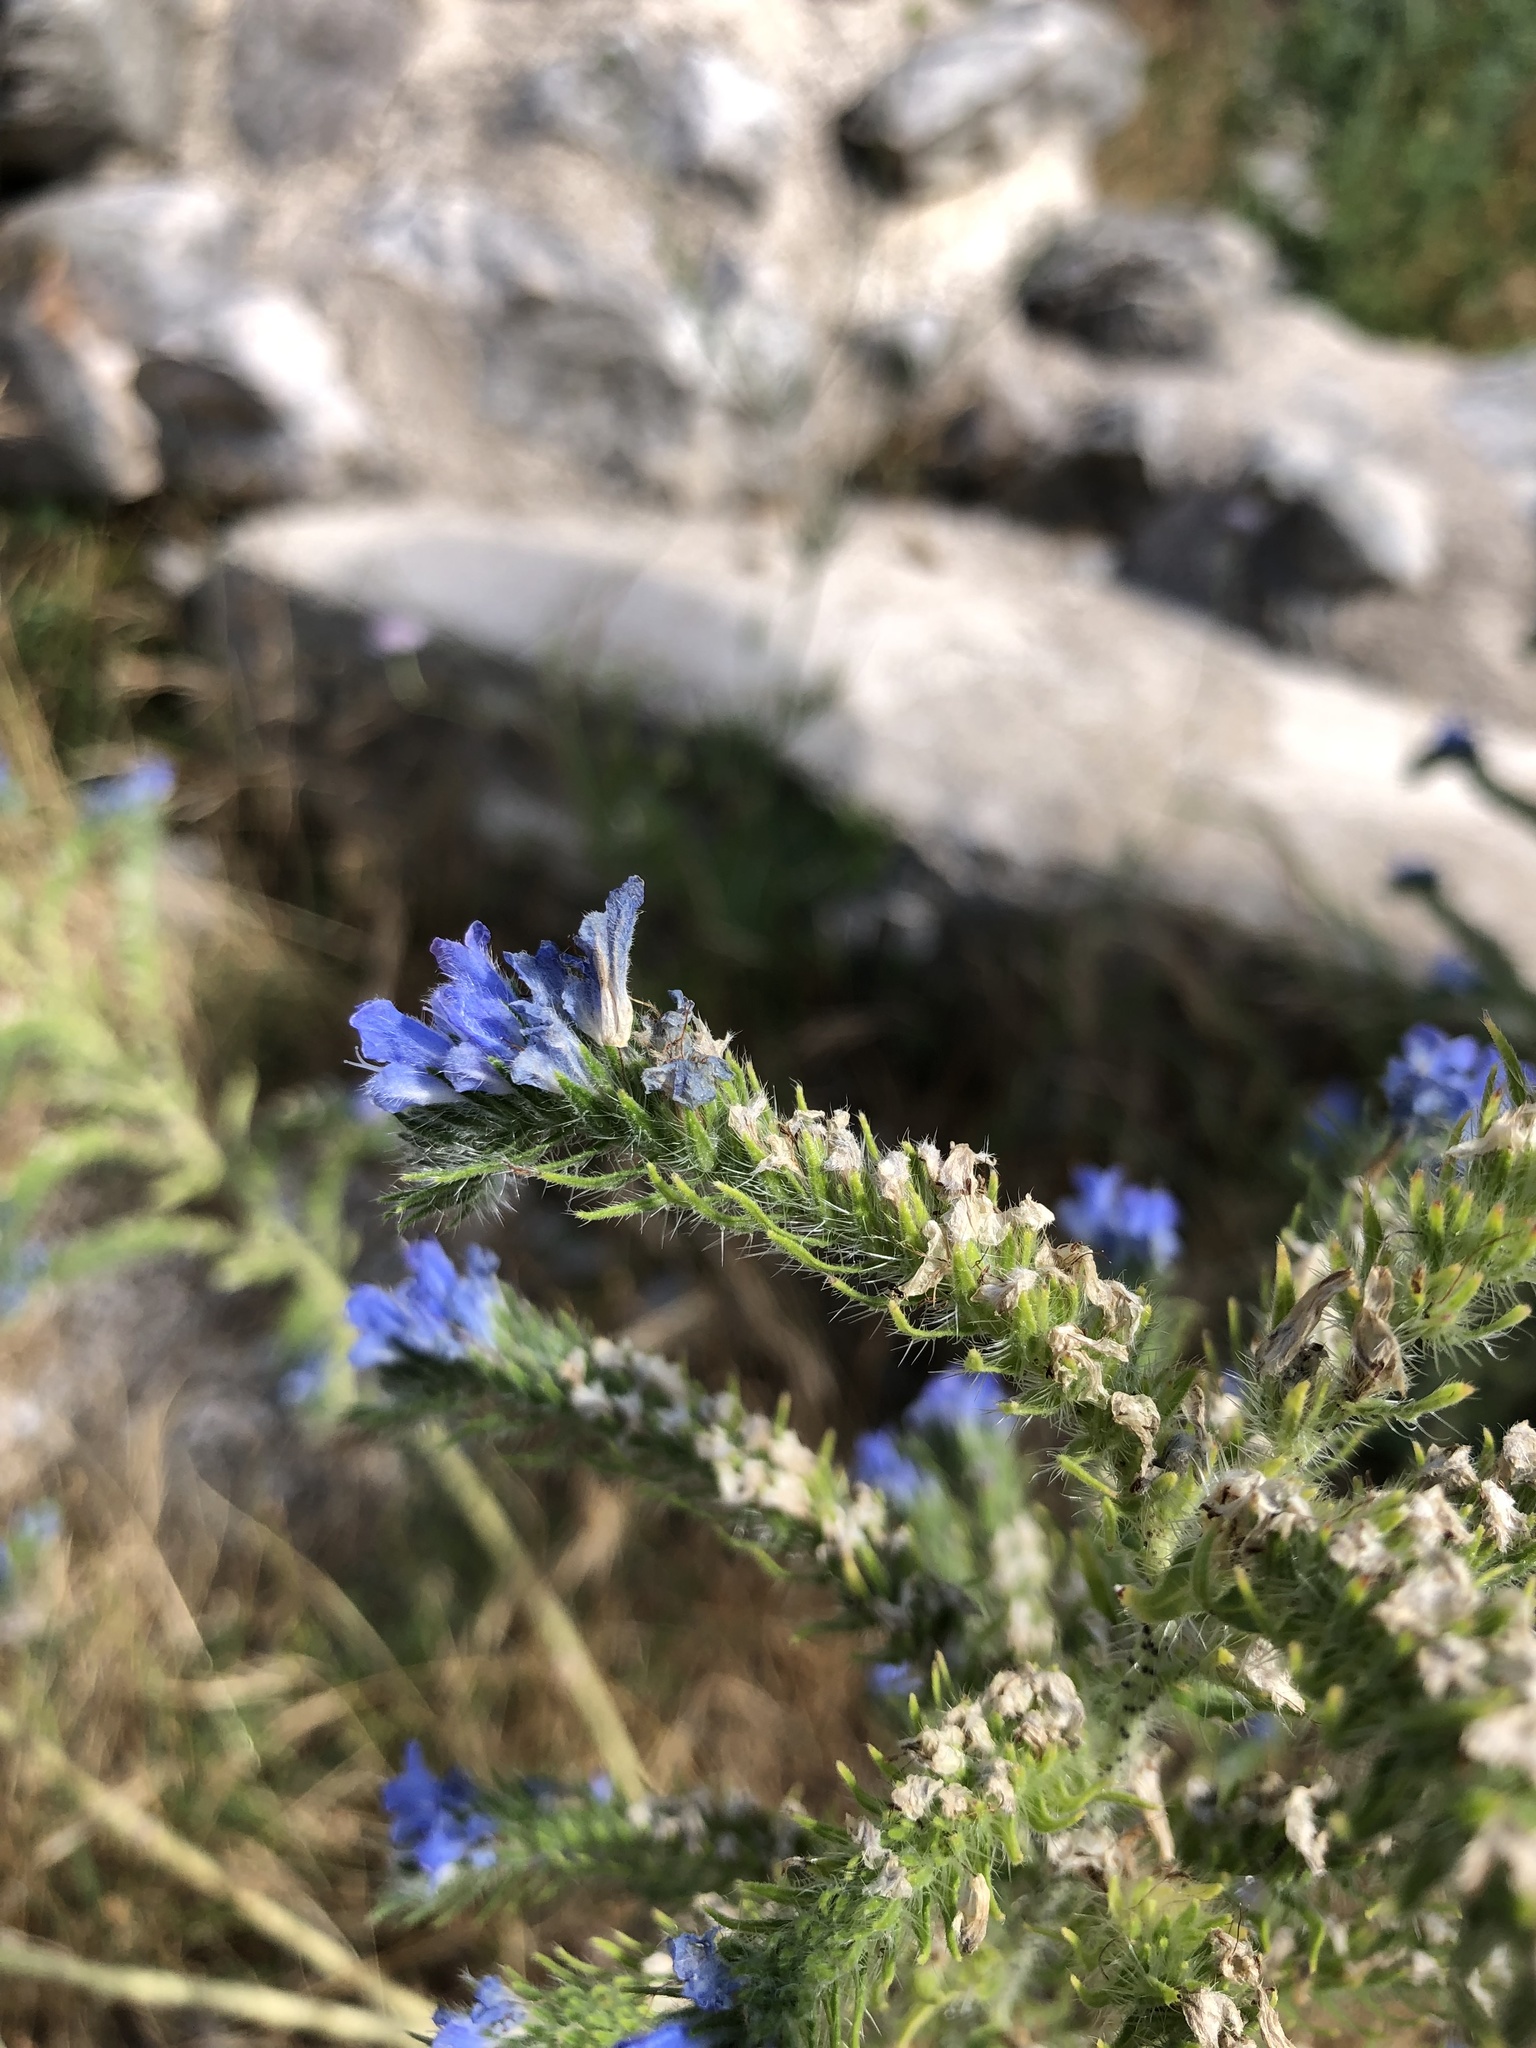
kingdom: Plantae
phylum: Tracheophyta
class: Magnoliopsida
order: Boraginales
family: Boraginaceae
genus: Echium
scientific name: Echium vulgare
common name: Common viper's bugloss
